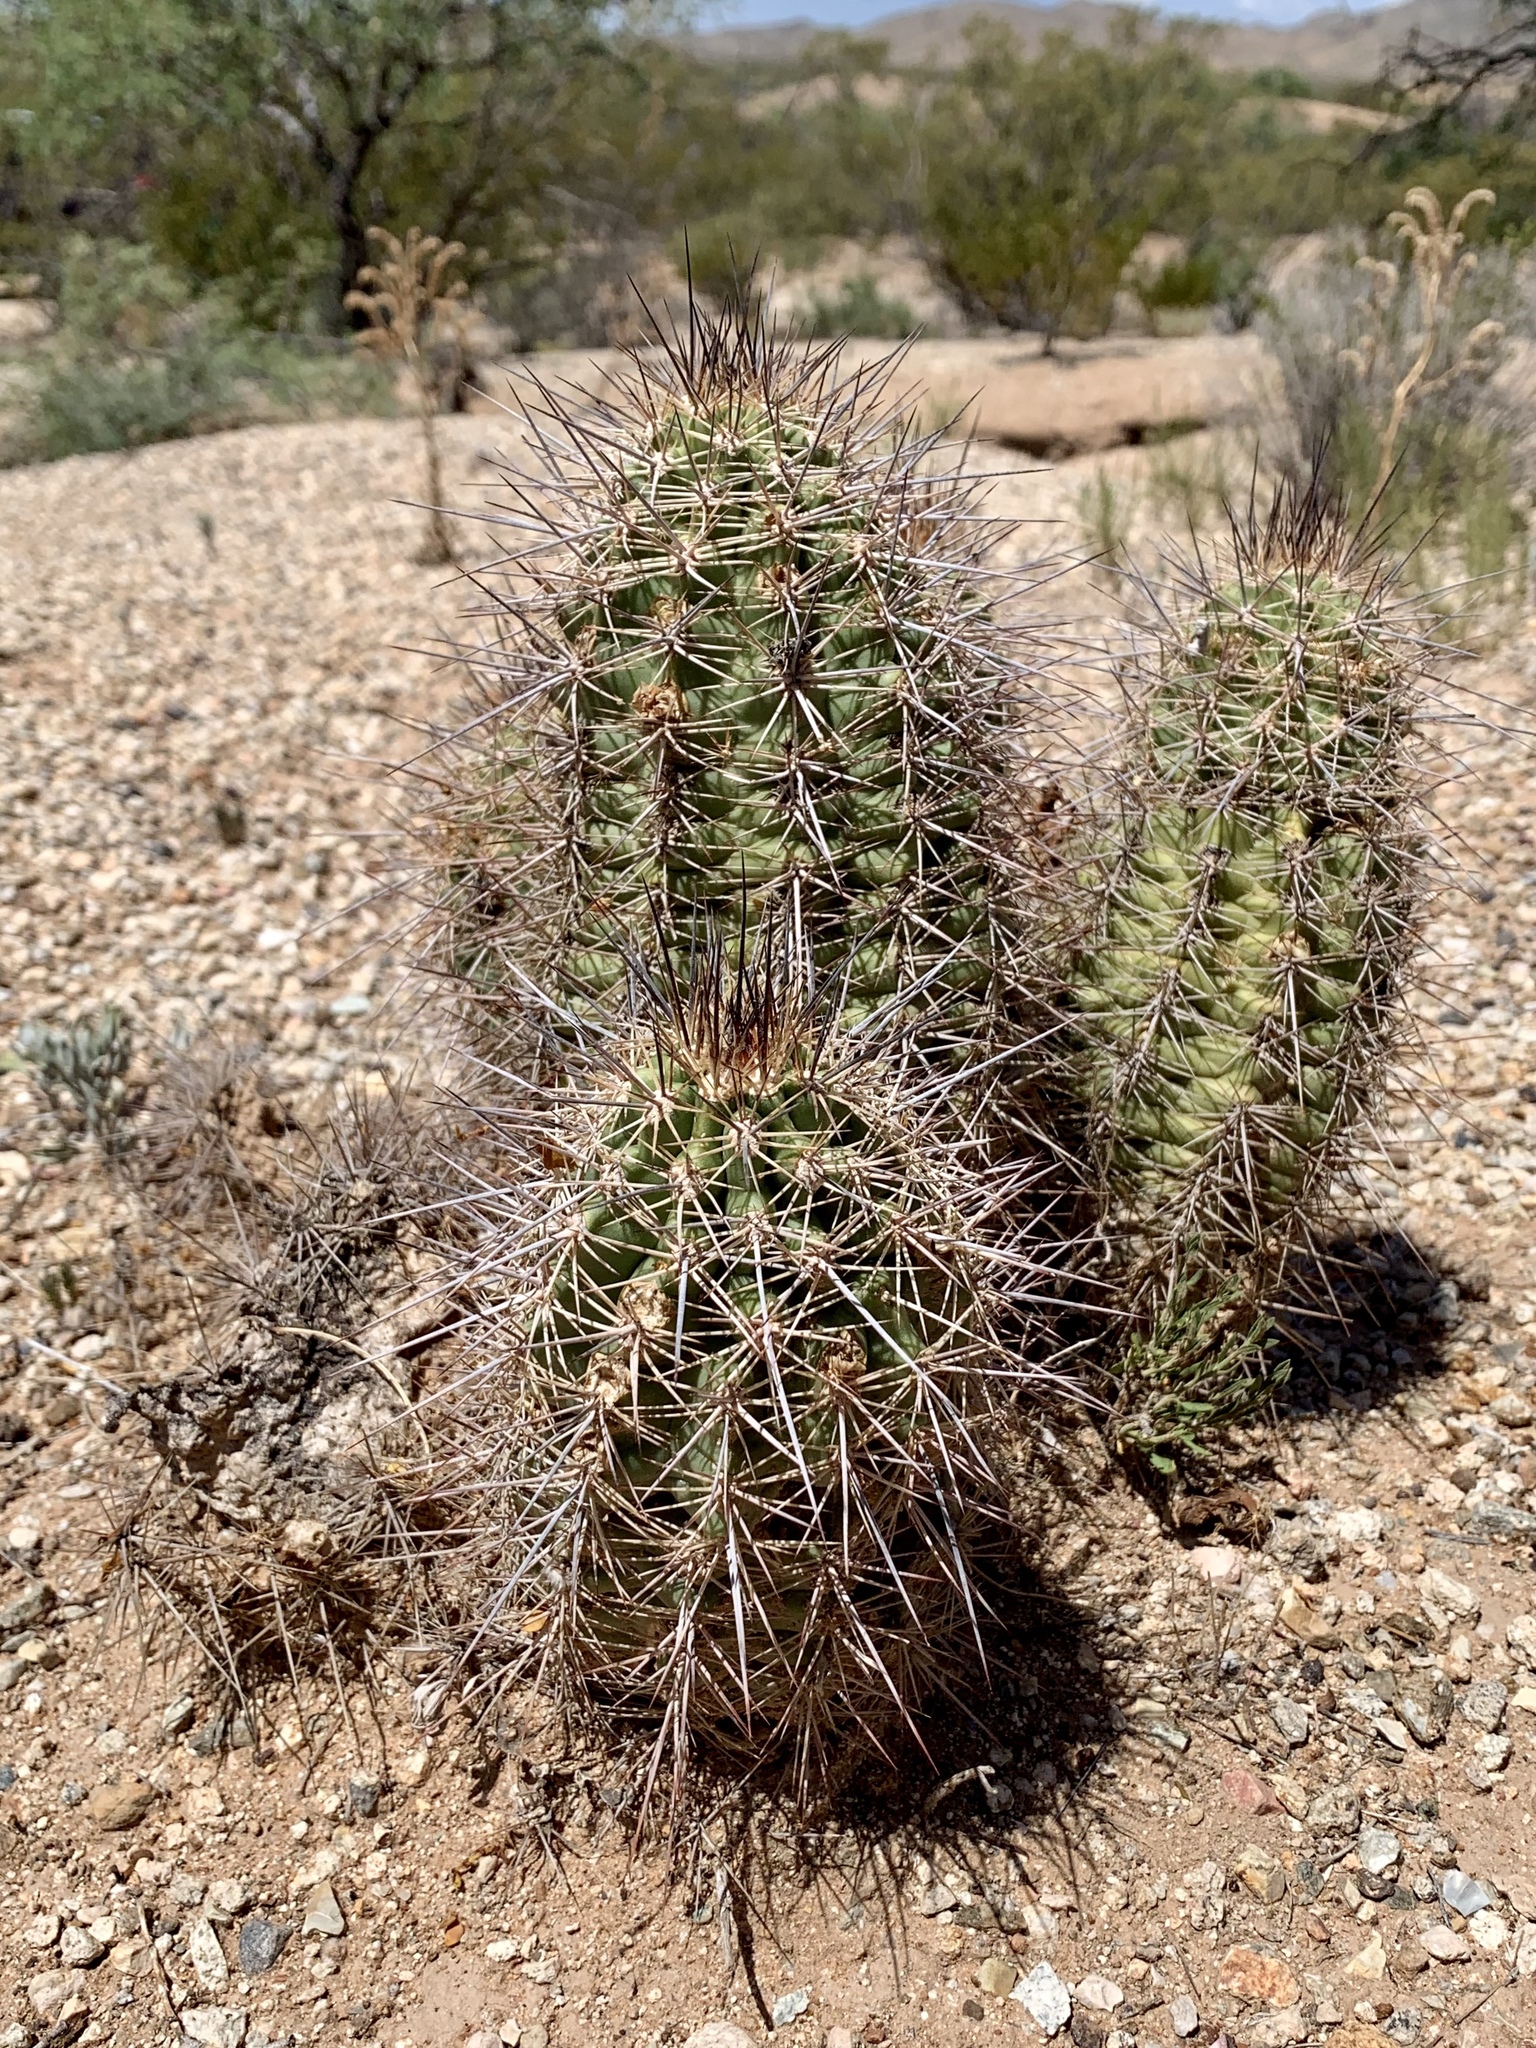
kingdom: Plantae
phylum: Tracheophyta
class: Magnoliopsida
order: Caryophyllales
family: Cactaceae
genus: Echinocereus
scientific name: Echinocereus coccineus
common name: Scarlet hedgehog cactus
